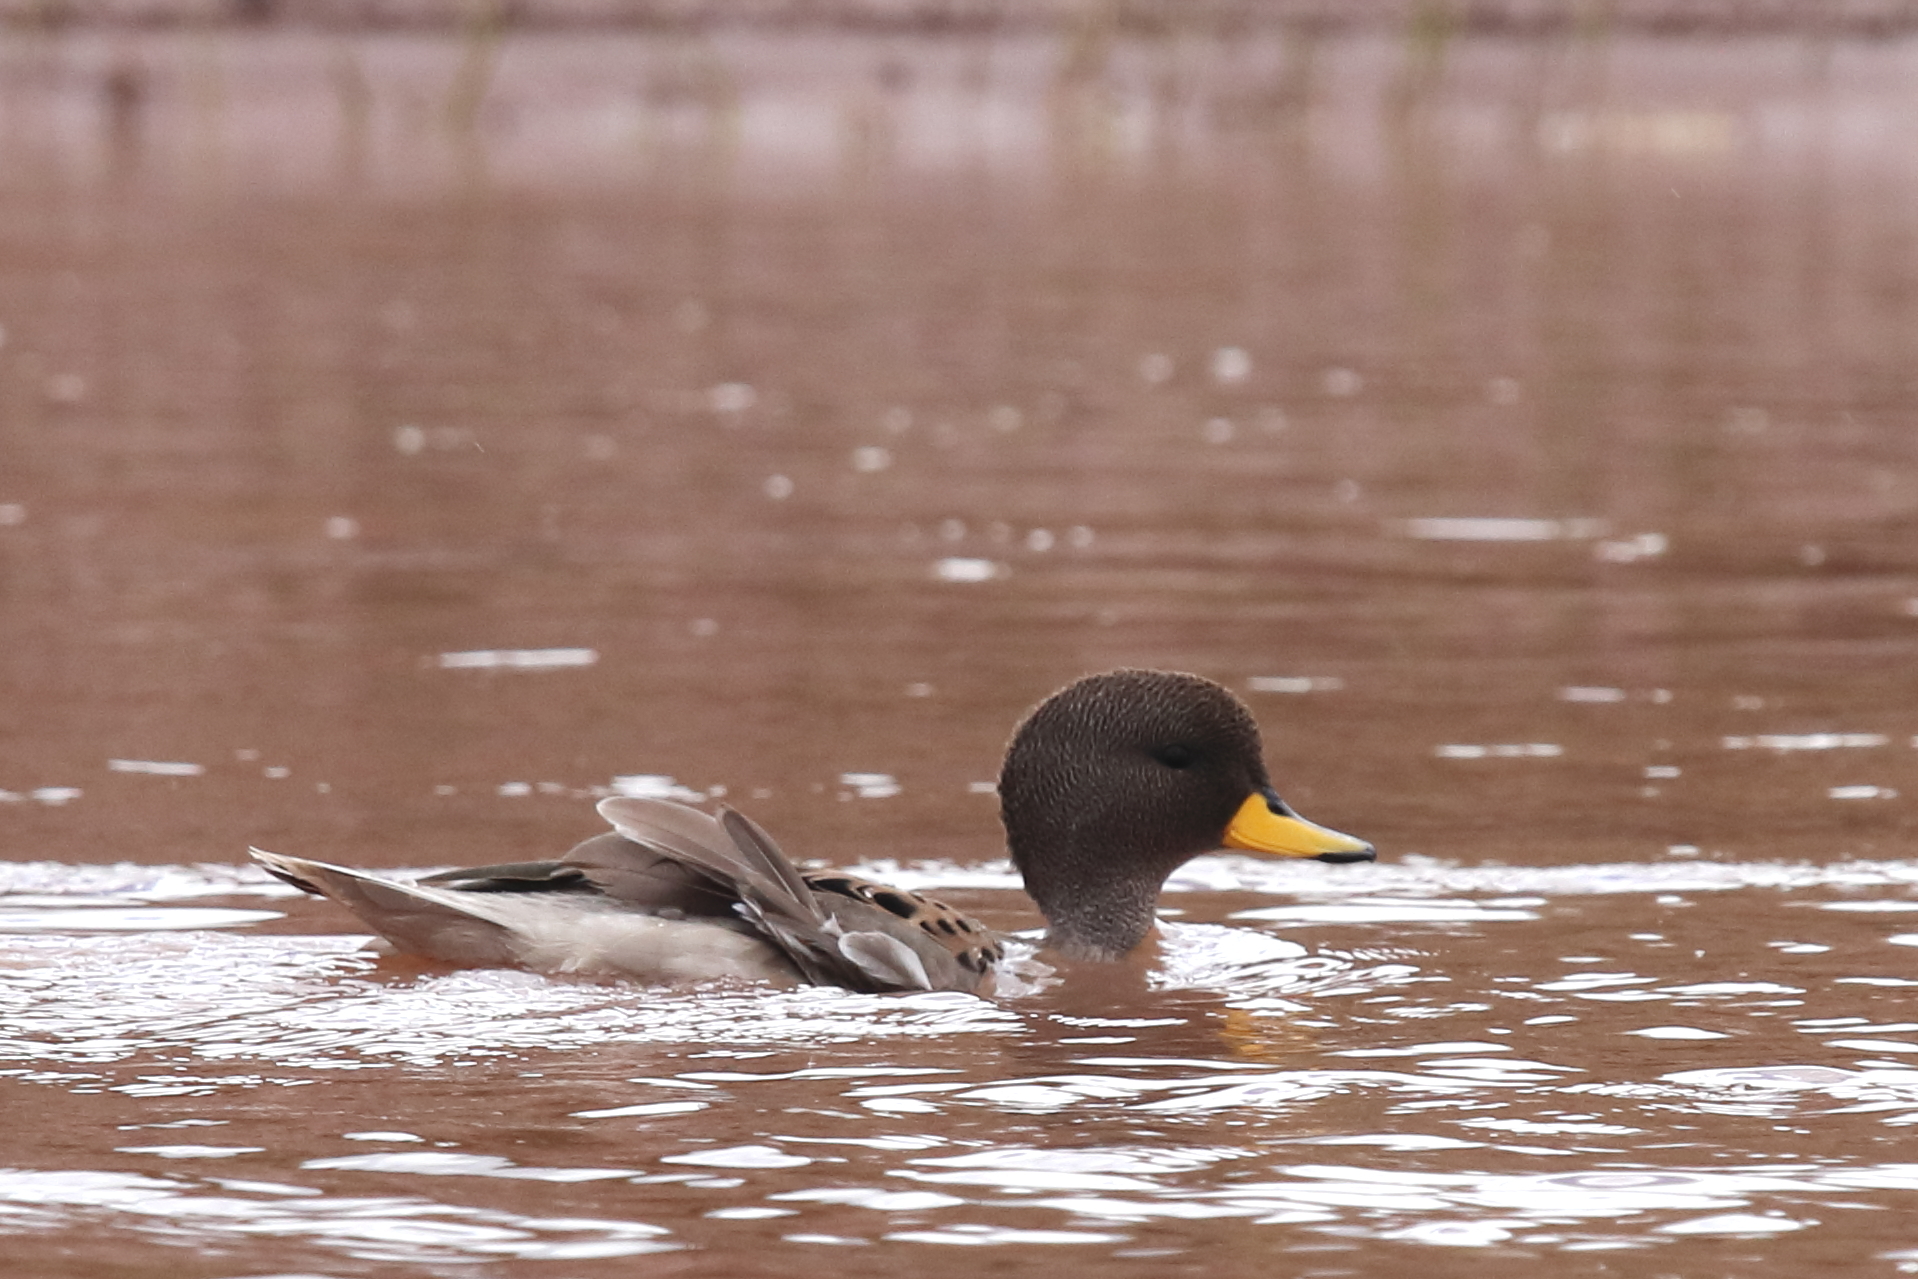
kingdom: Animalia
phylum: Chordata
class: Aves
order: Anseriformes
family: Anatidae
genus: Anas
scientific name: Anas flavirostris
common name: Yellow-billed teal
